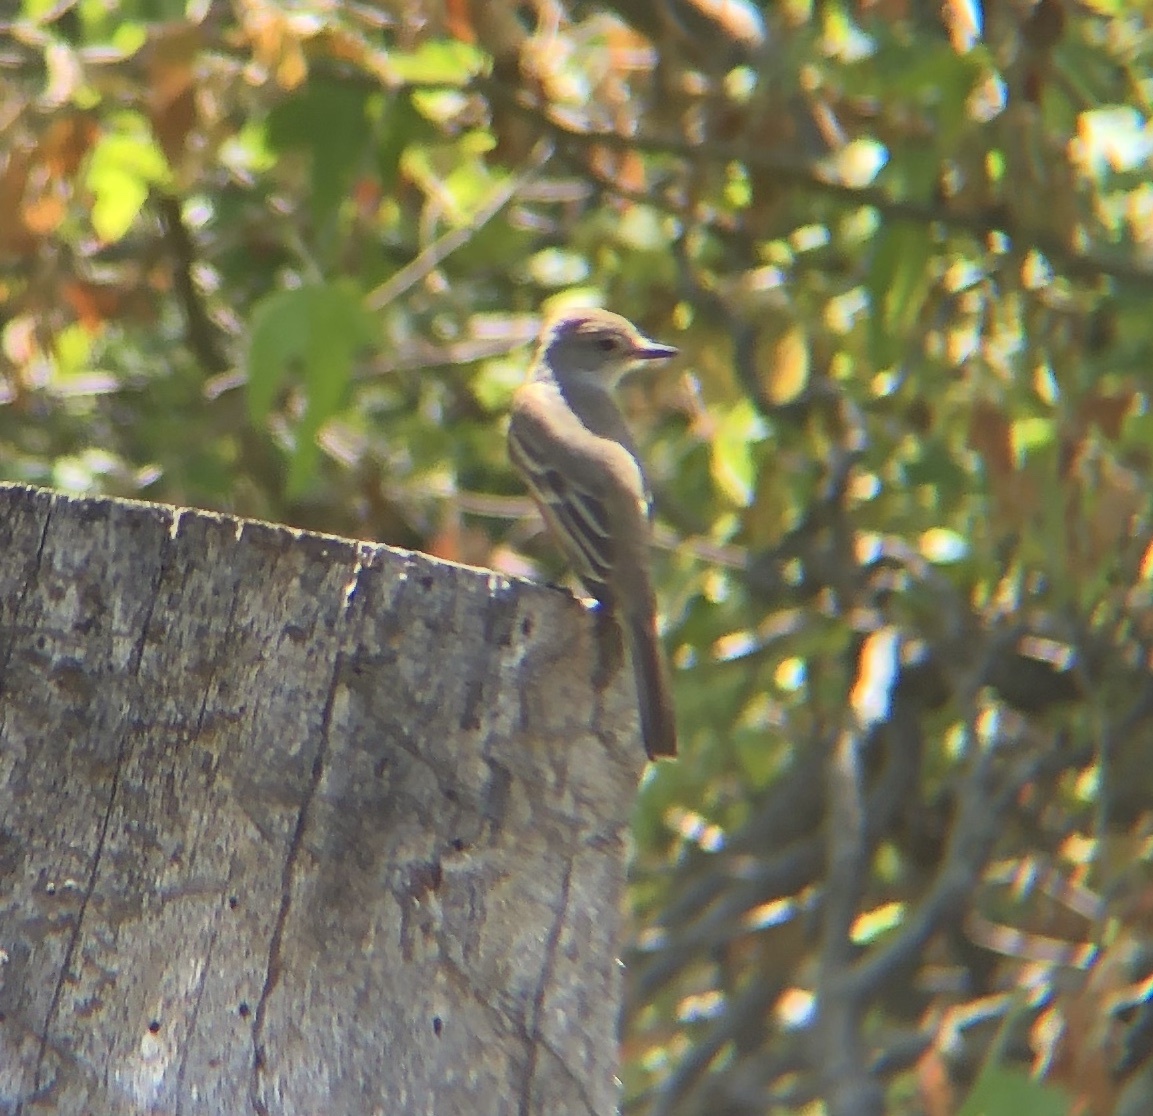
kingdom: Animalia
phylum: Chordata
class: Aves
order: Passeriformes
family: Tyrannidae
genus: Myiarchus
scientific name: Myiarchus cinerascens
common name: Ash-throated flycatcher
